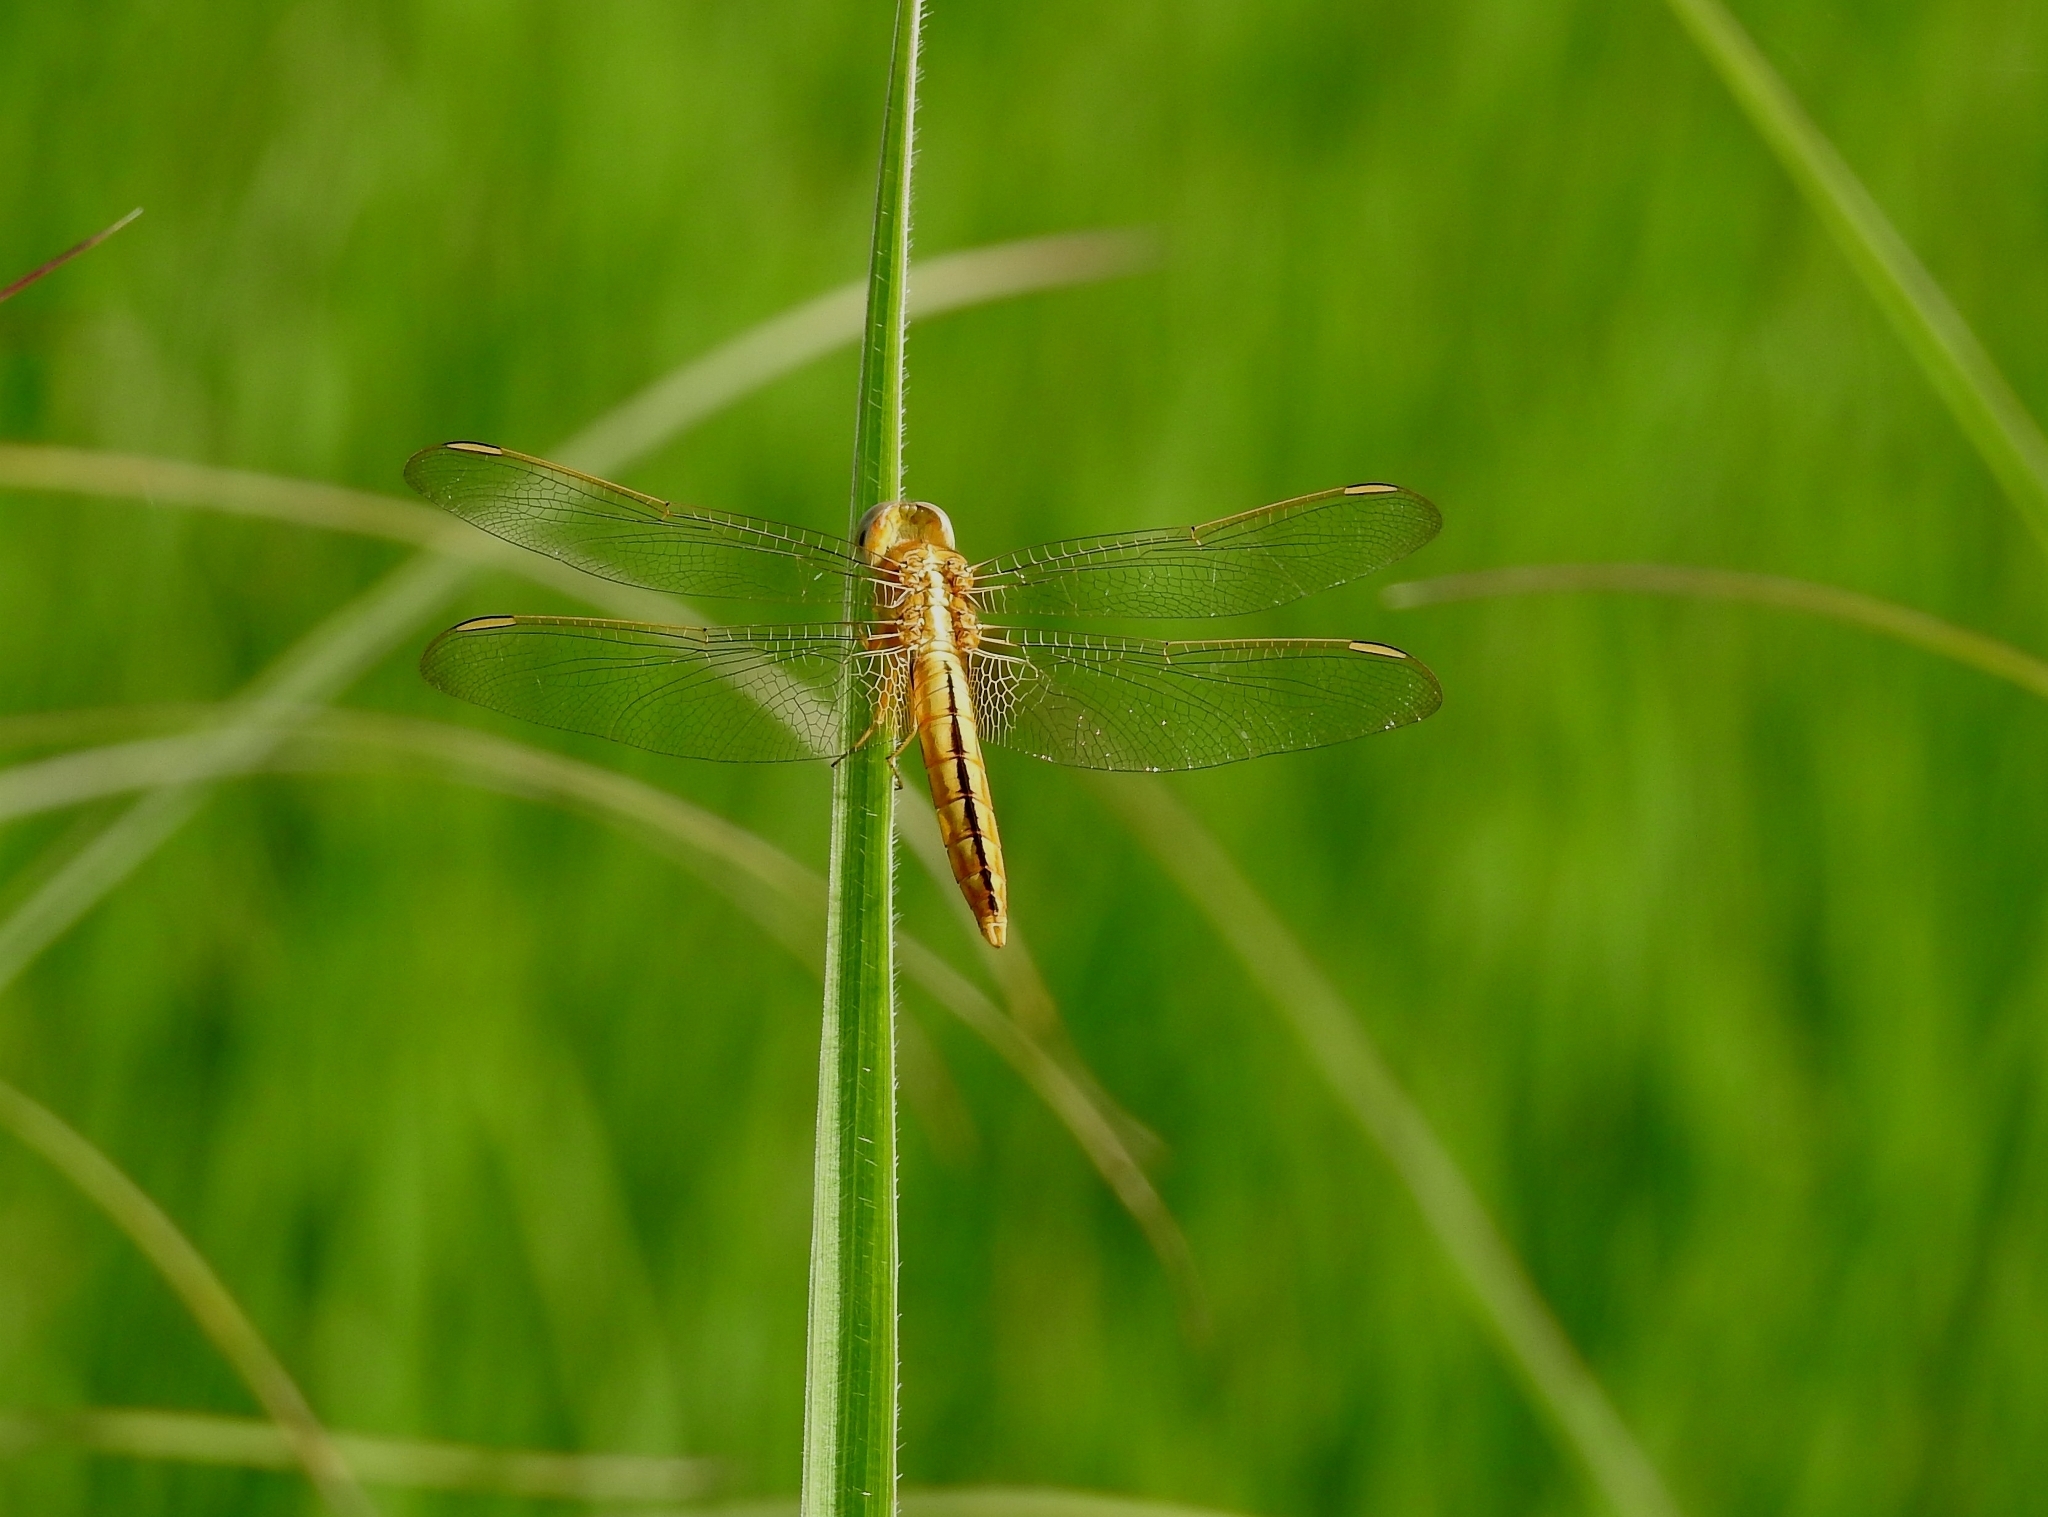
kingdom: Animalia
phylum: Arthropoda
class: Insecta
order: Odonata
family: Libellulidae
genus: Crocothemis
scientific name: Crocothemis servilia
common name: Scarlet skimmer
